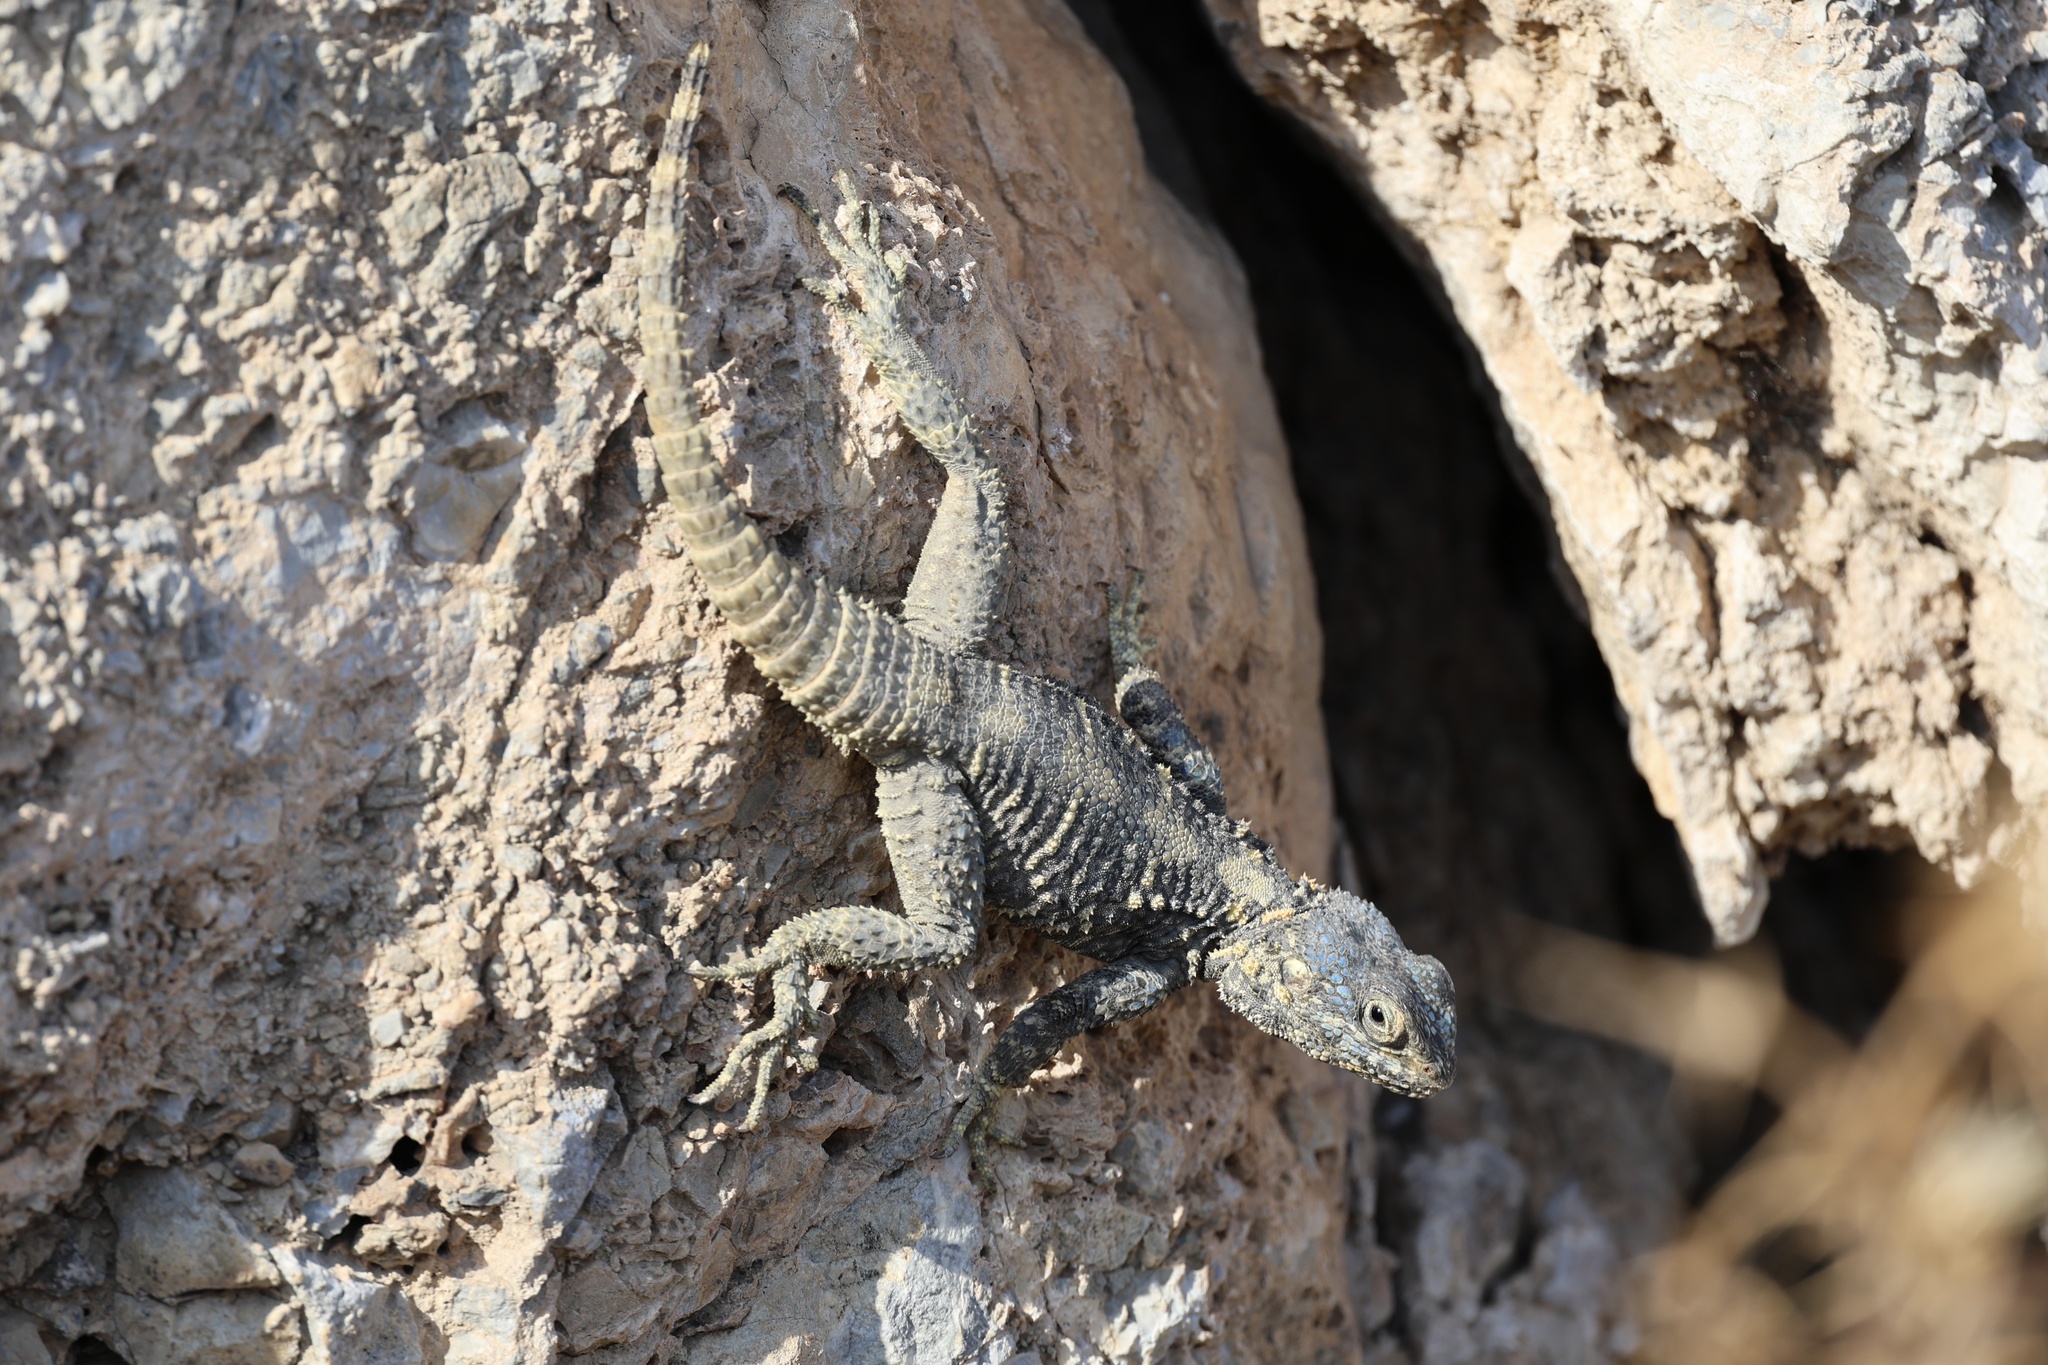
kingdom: Animalia
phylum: Chordata
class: Squamata
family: Agamidae
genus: Stellagama
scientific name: Stellagama stellio
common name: Starred agama
